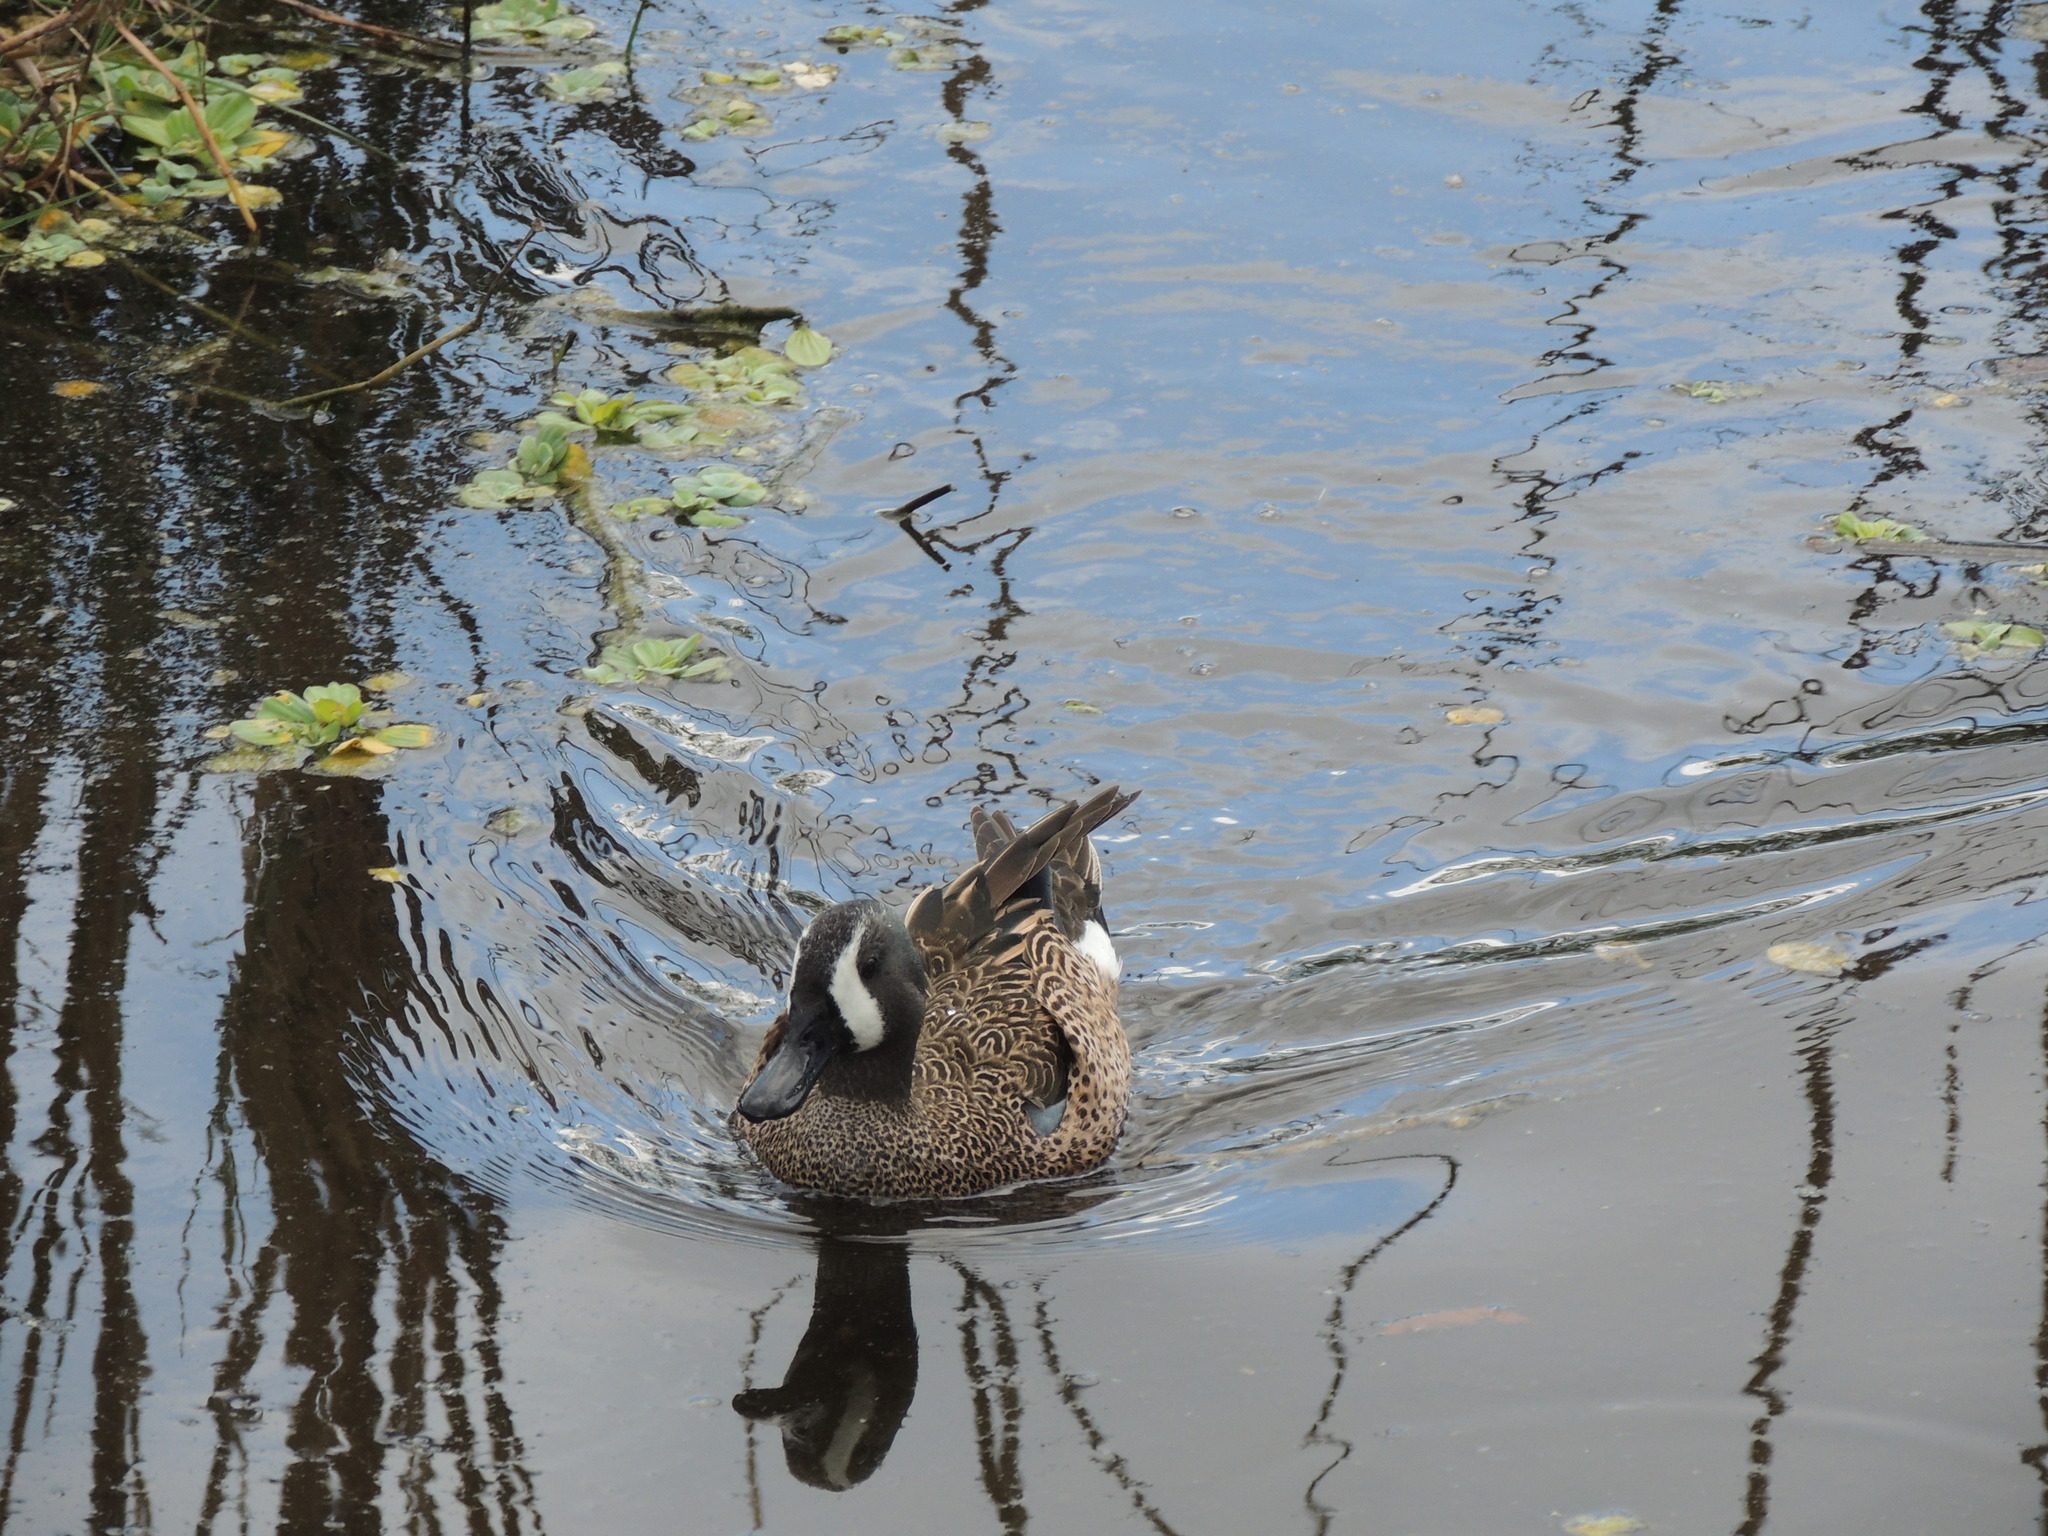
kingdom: Animalia
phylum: Chordata
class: Aves
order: Anseriformes
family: Anatidae
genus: Spatula
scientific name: Spatula discors
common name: Blue-winged teal
